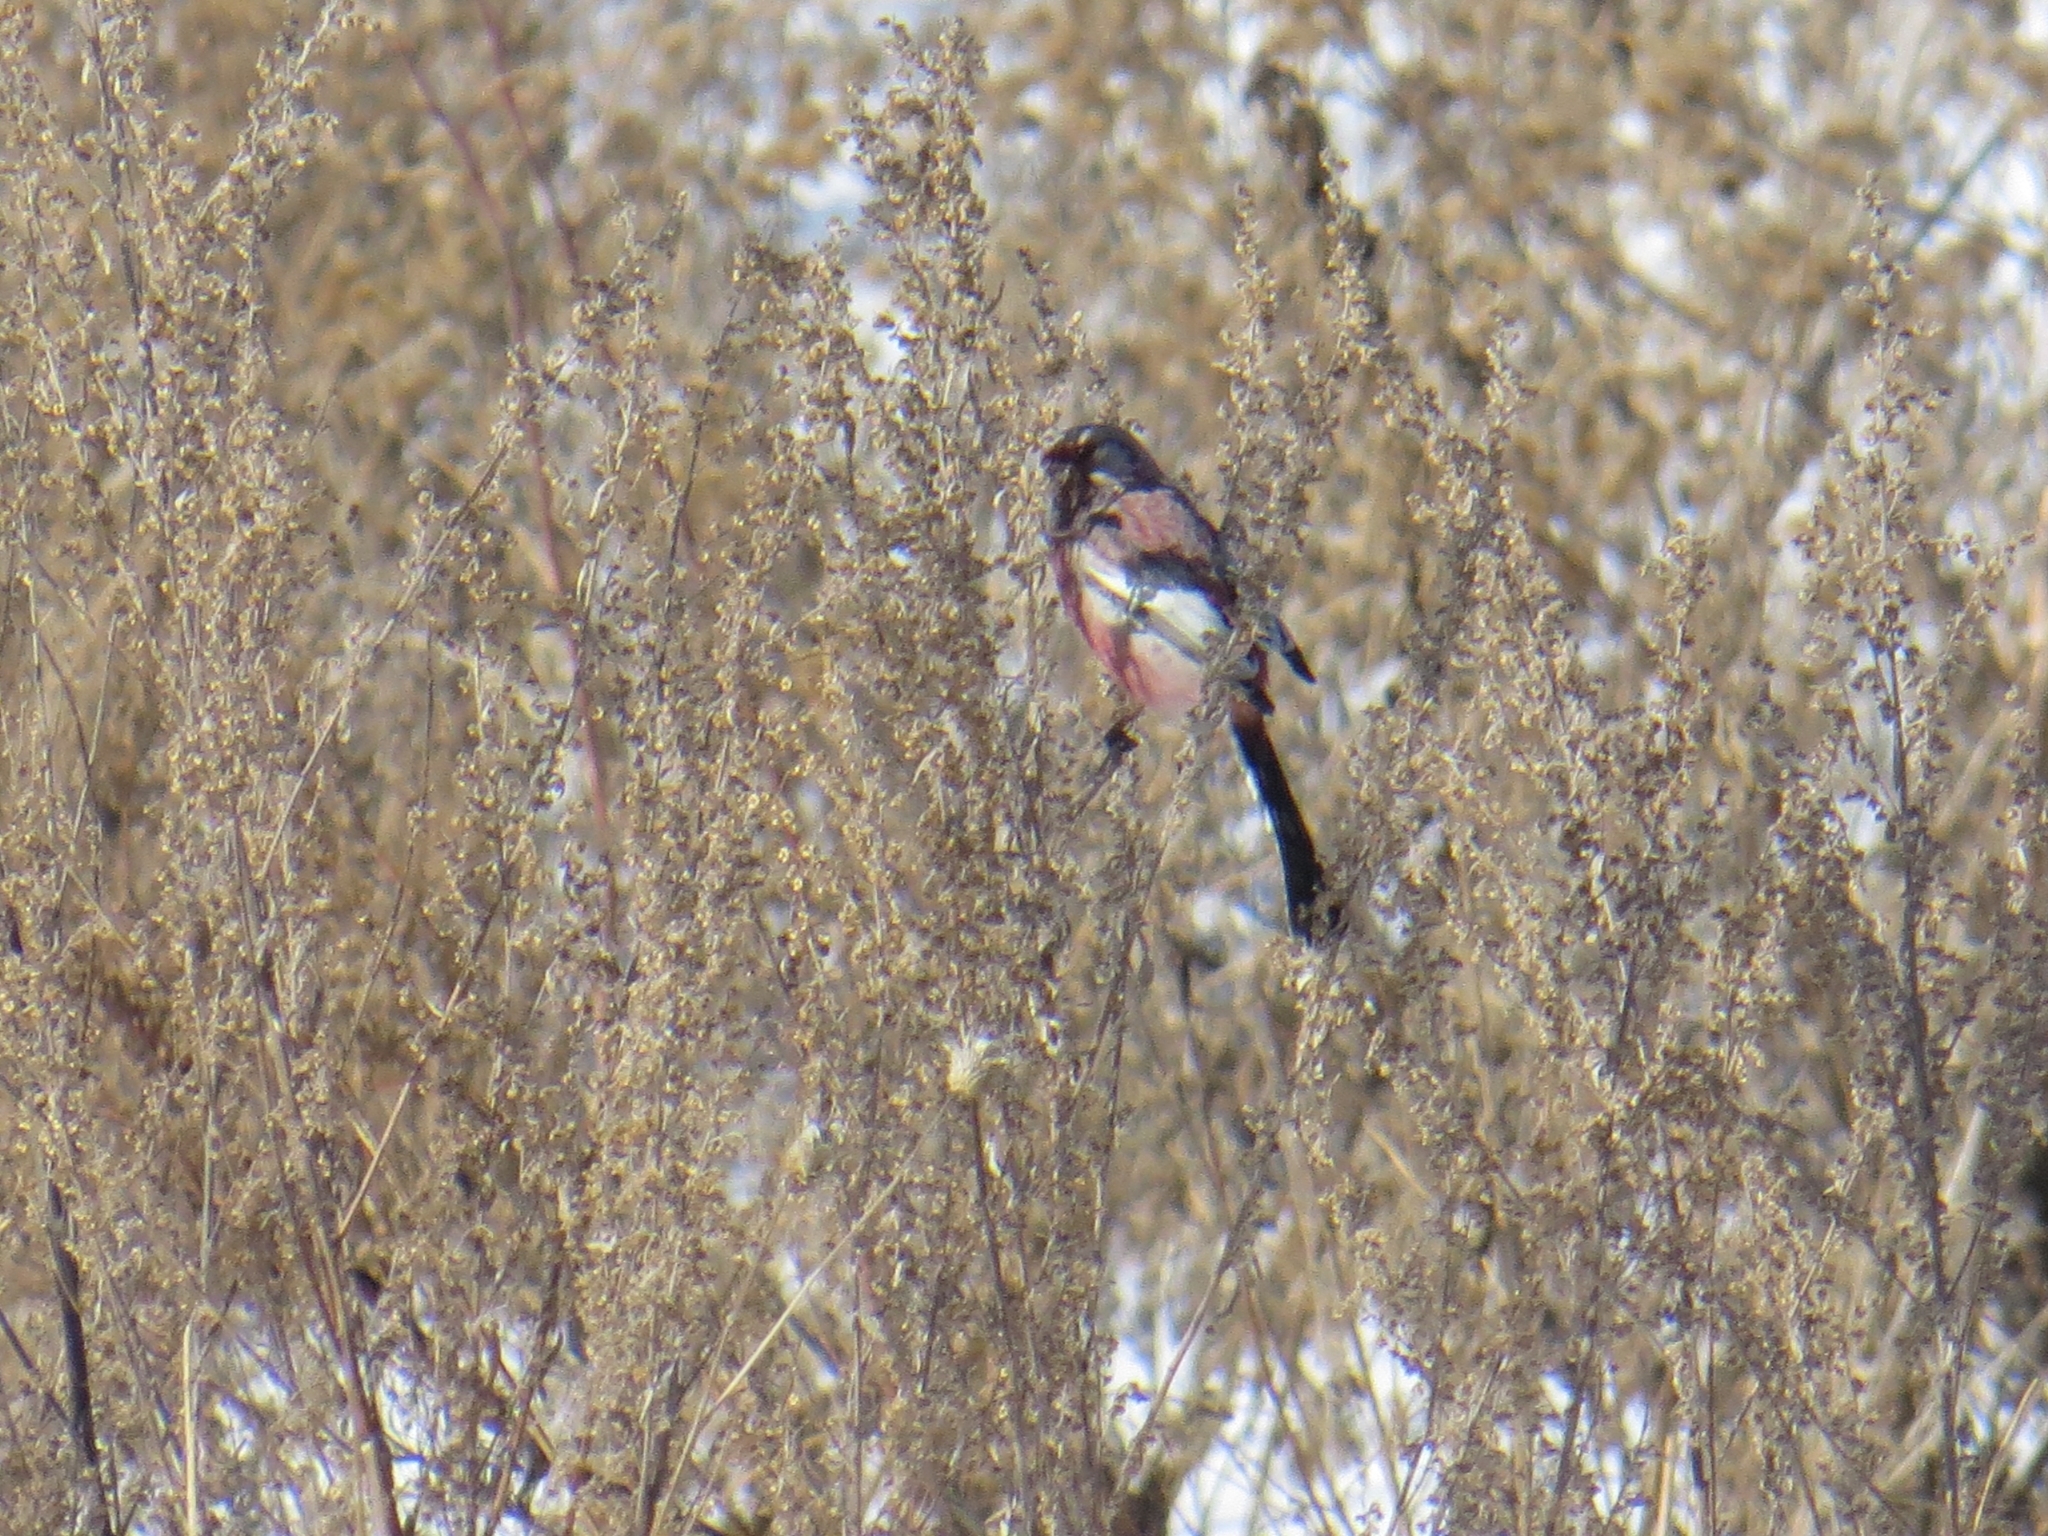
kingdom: Animalia
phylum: Chordata
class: Aves
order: Passeriformes
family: Fringillidae
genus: Carpodacus
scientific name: Carpodacus sibiricus
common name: Long-tailed rosefinch
